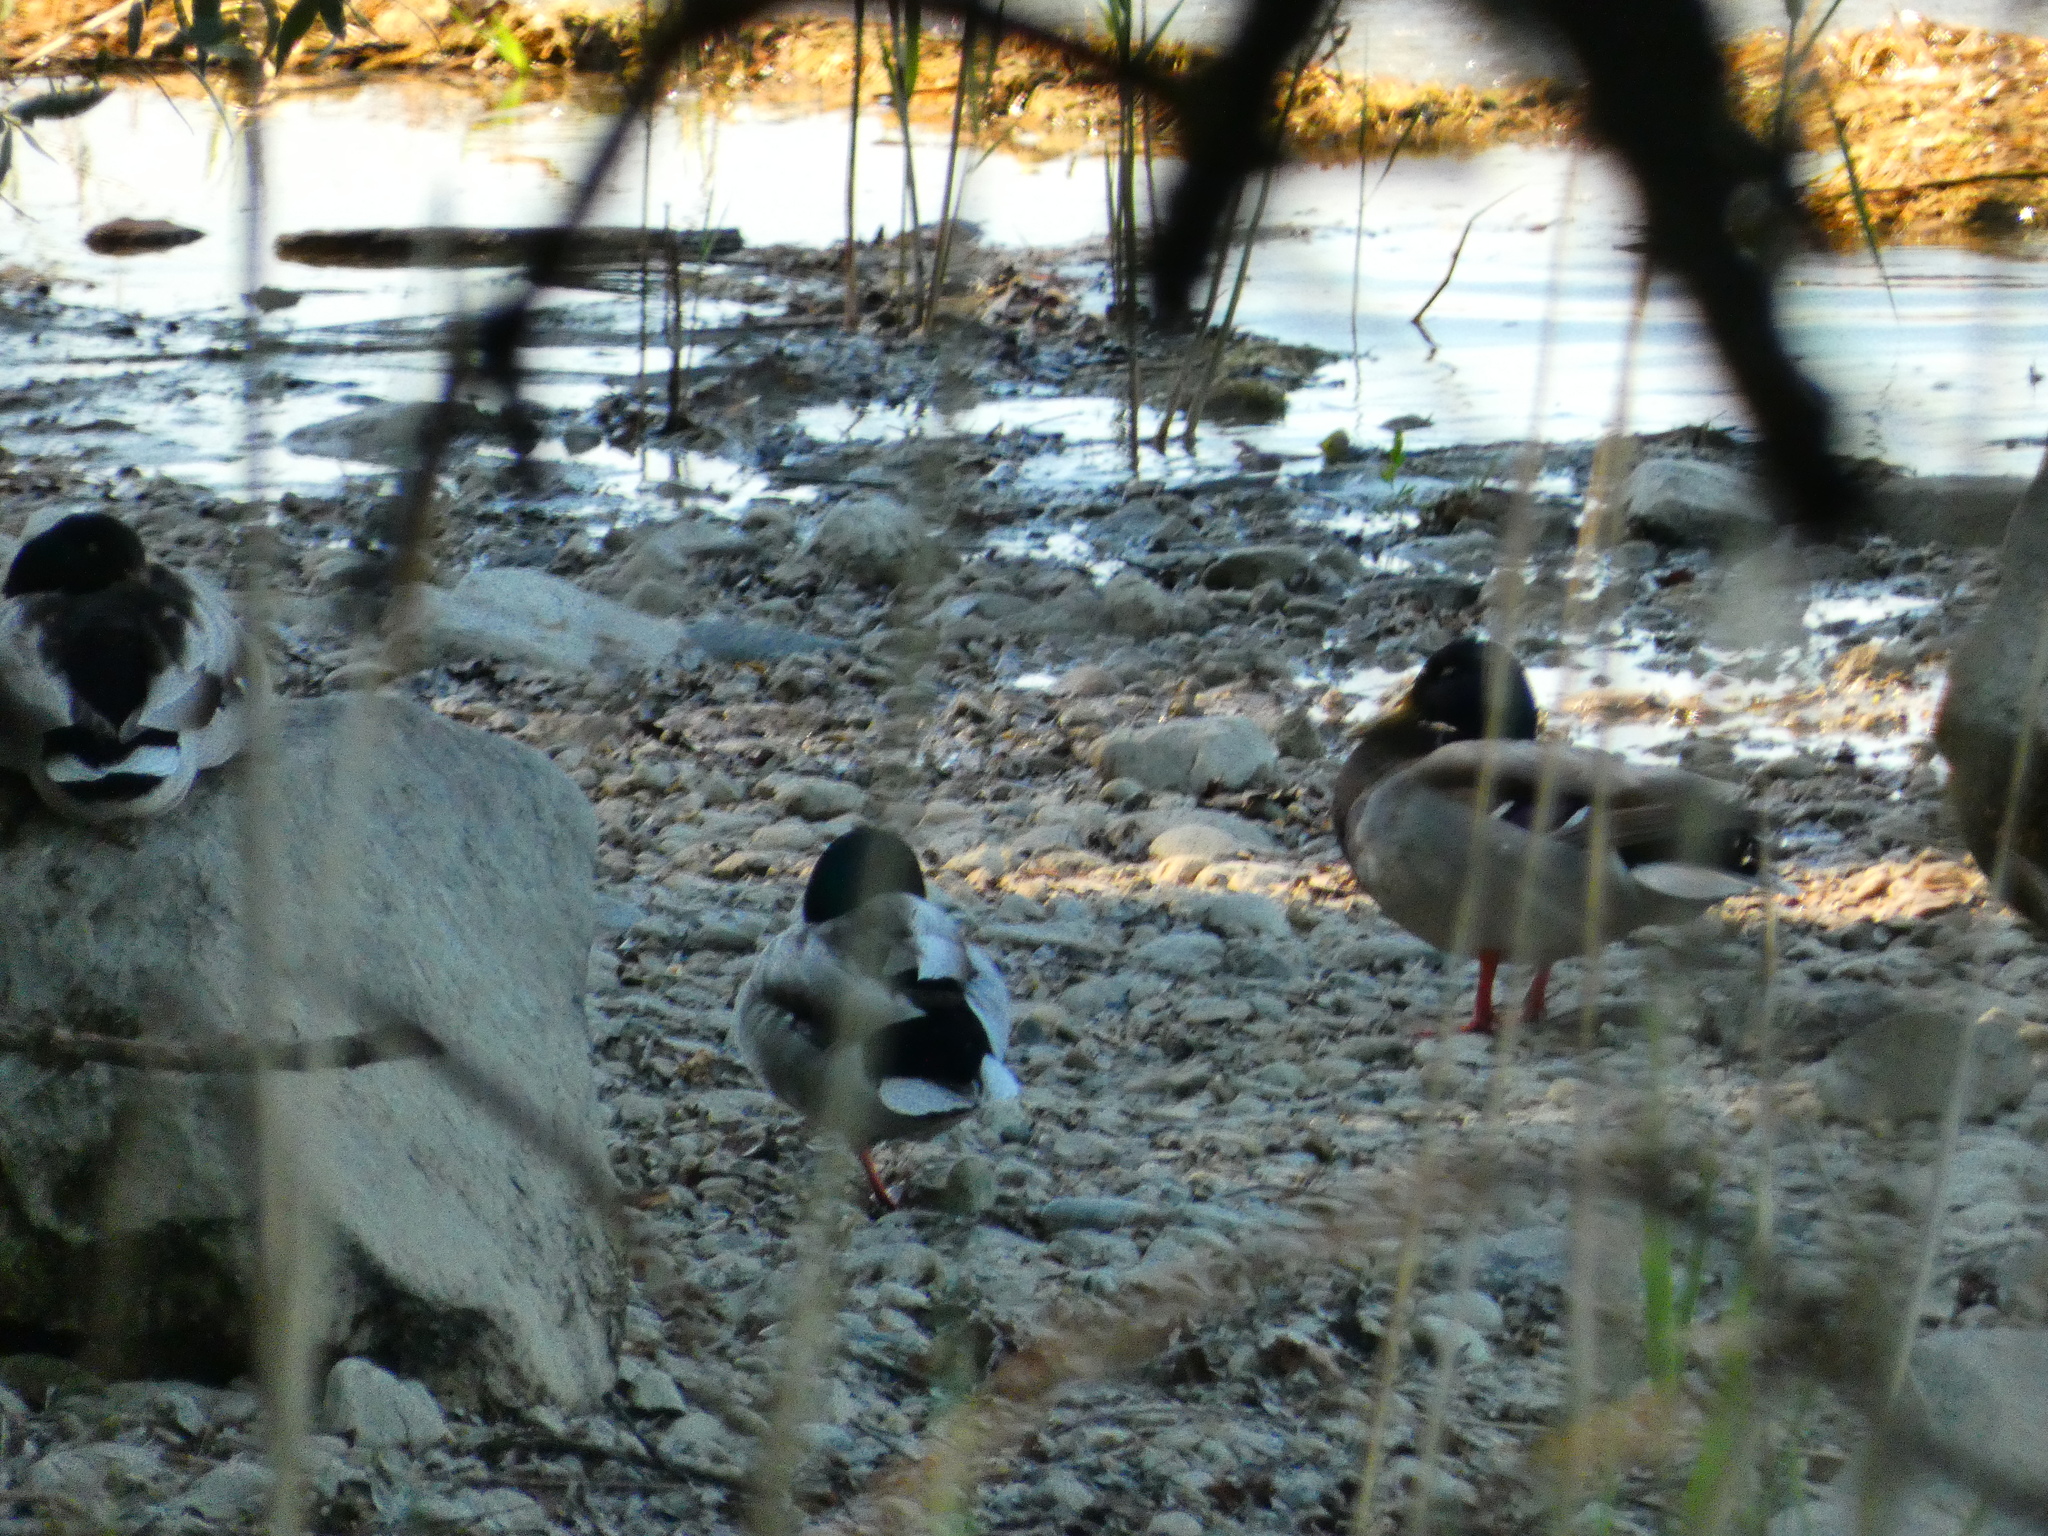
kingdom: Animalia
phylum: Chordata
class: Aves
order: Anseriformes
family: Anatidae
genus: Anas
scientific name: Anas platyrhynchos
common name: Mallard
